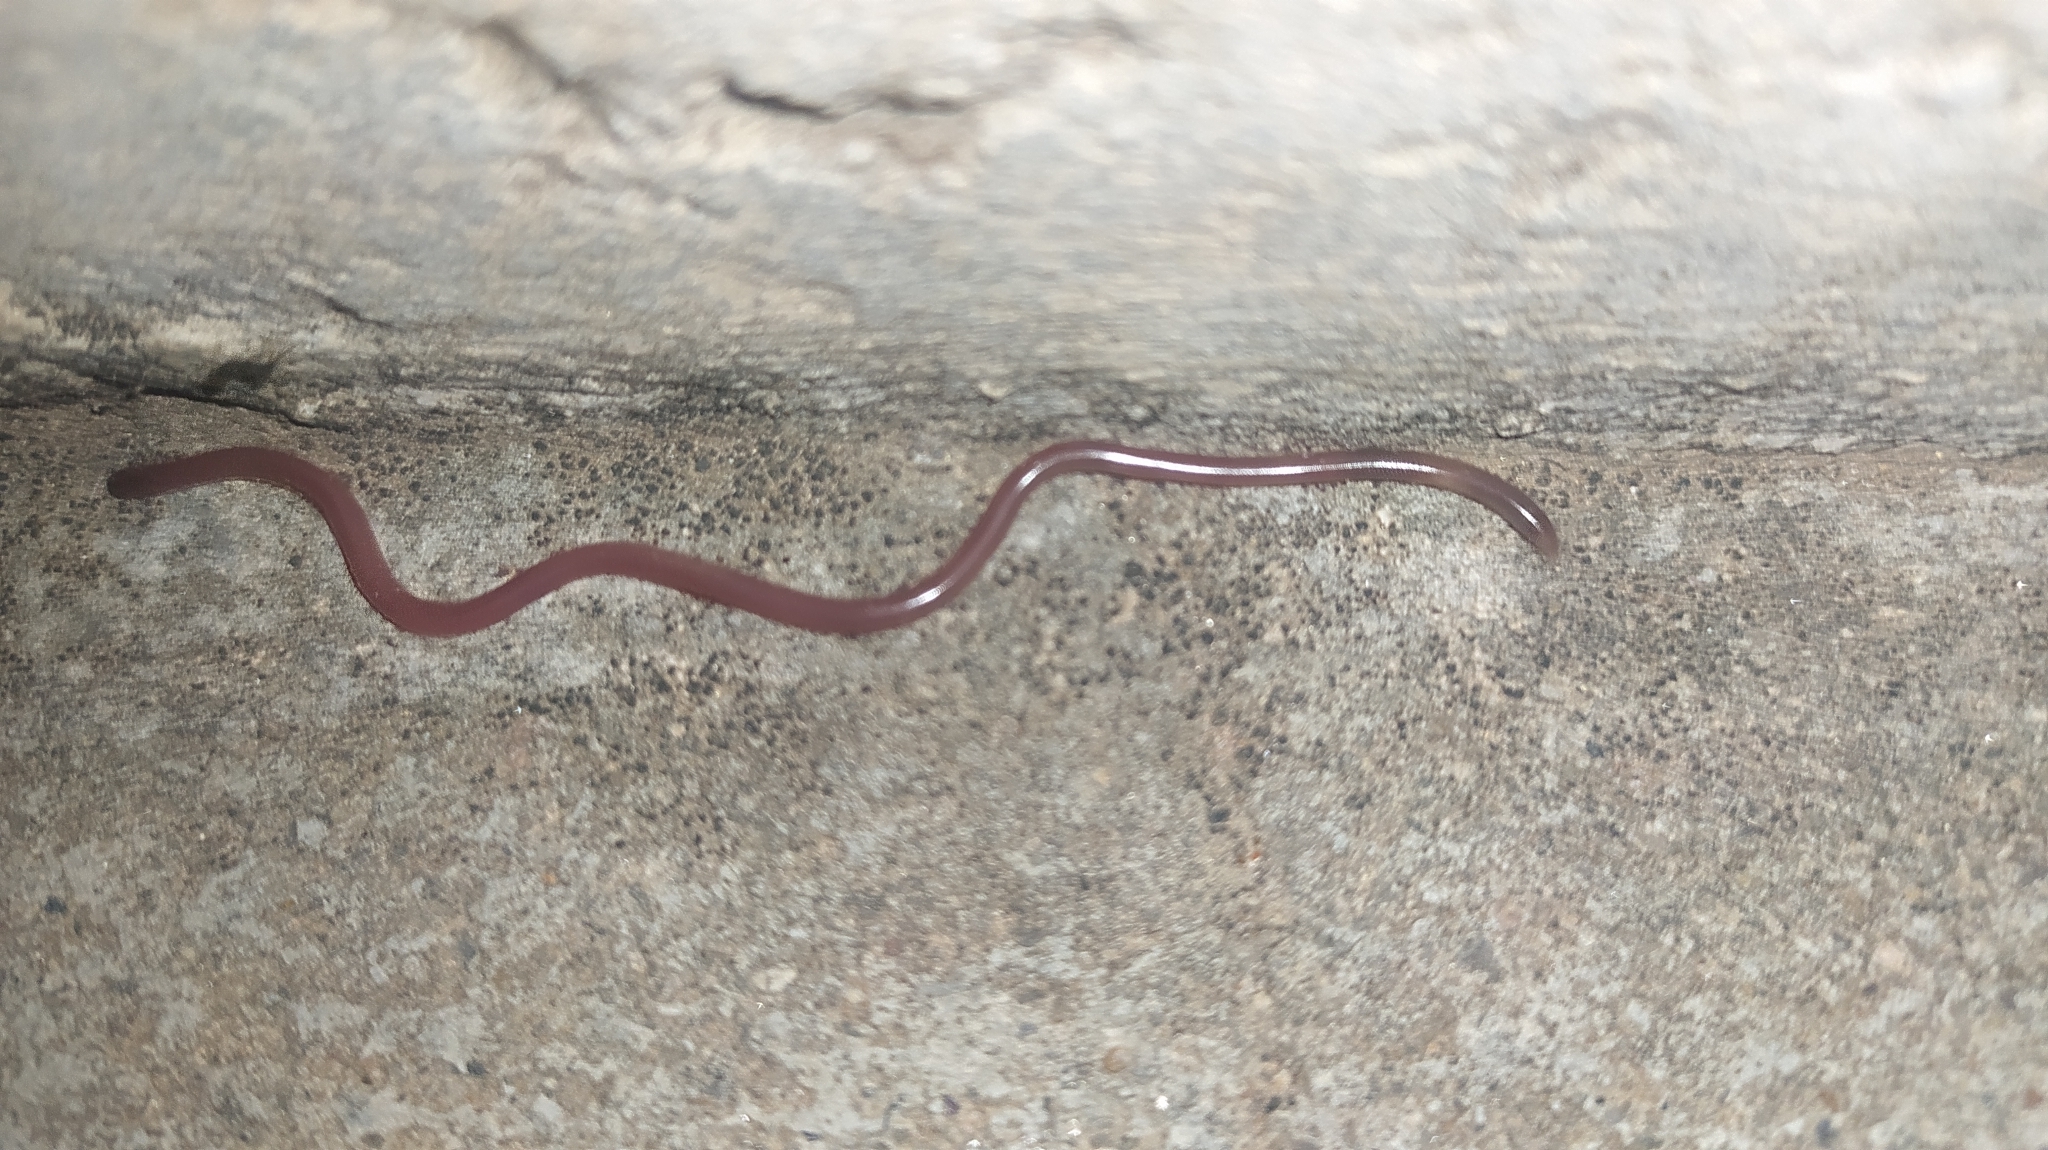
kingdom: Animalia
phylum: Chordata
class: Squamata
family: Typhlopidae
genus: Indotyphlops
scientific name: Indotyphlops braminus
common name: Brahminy blindsnake
